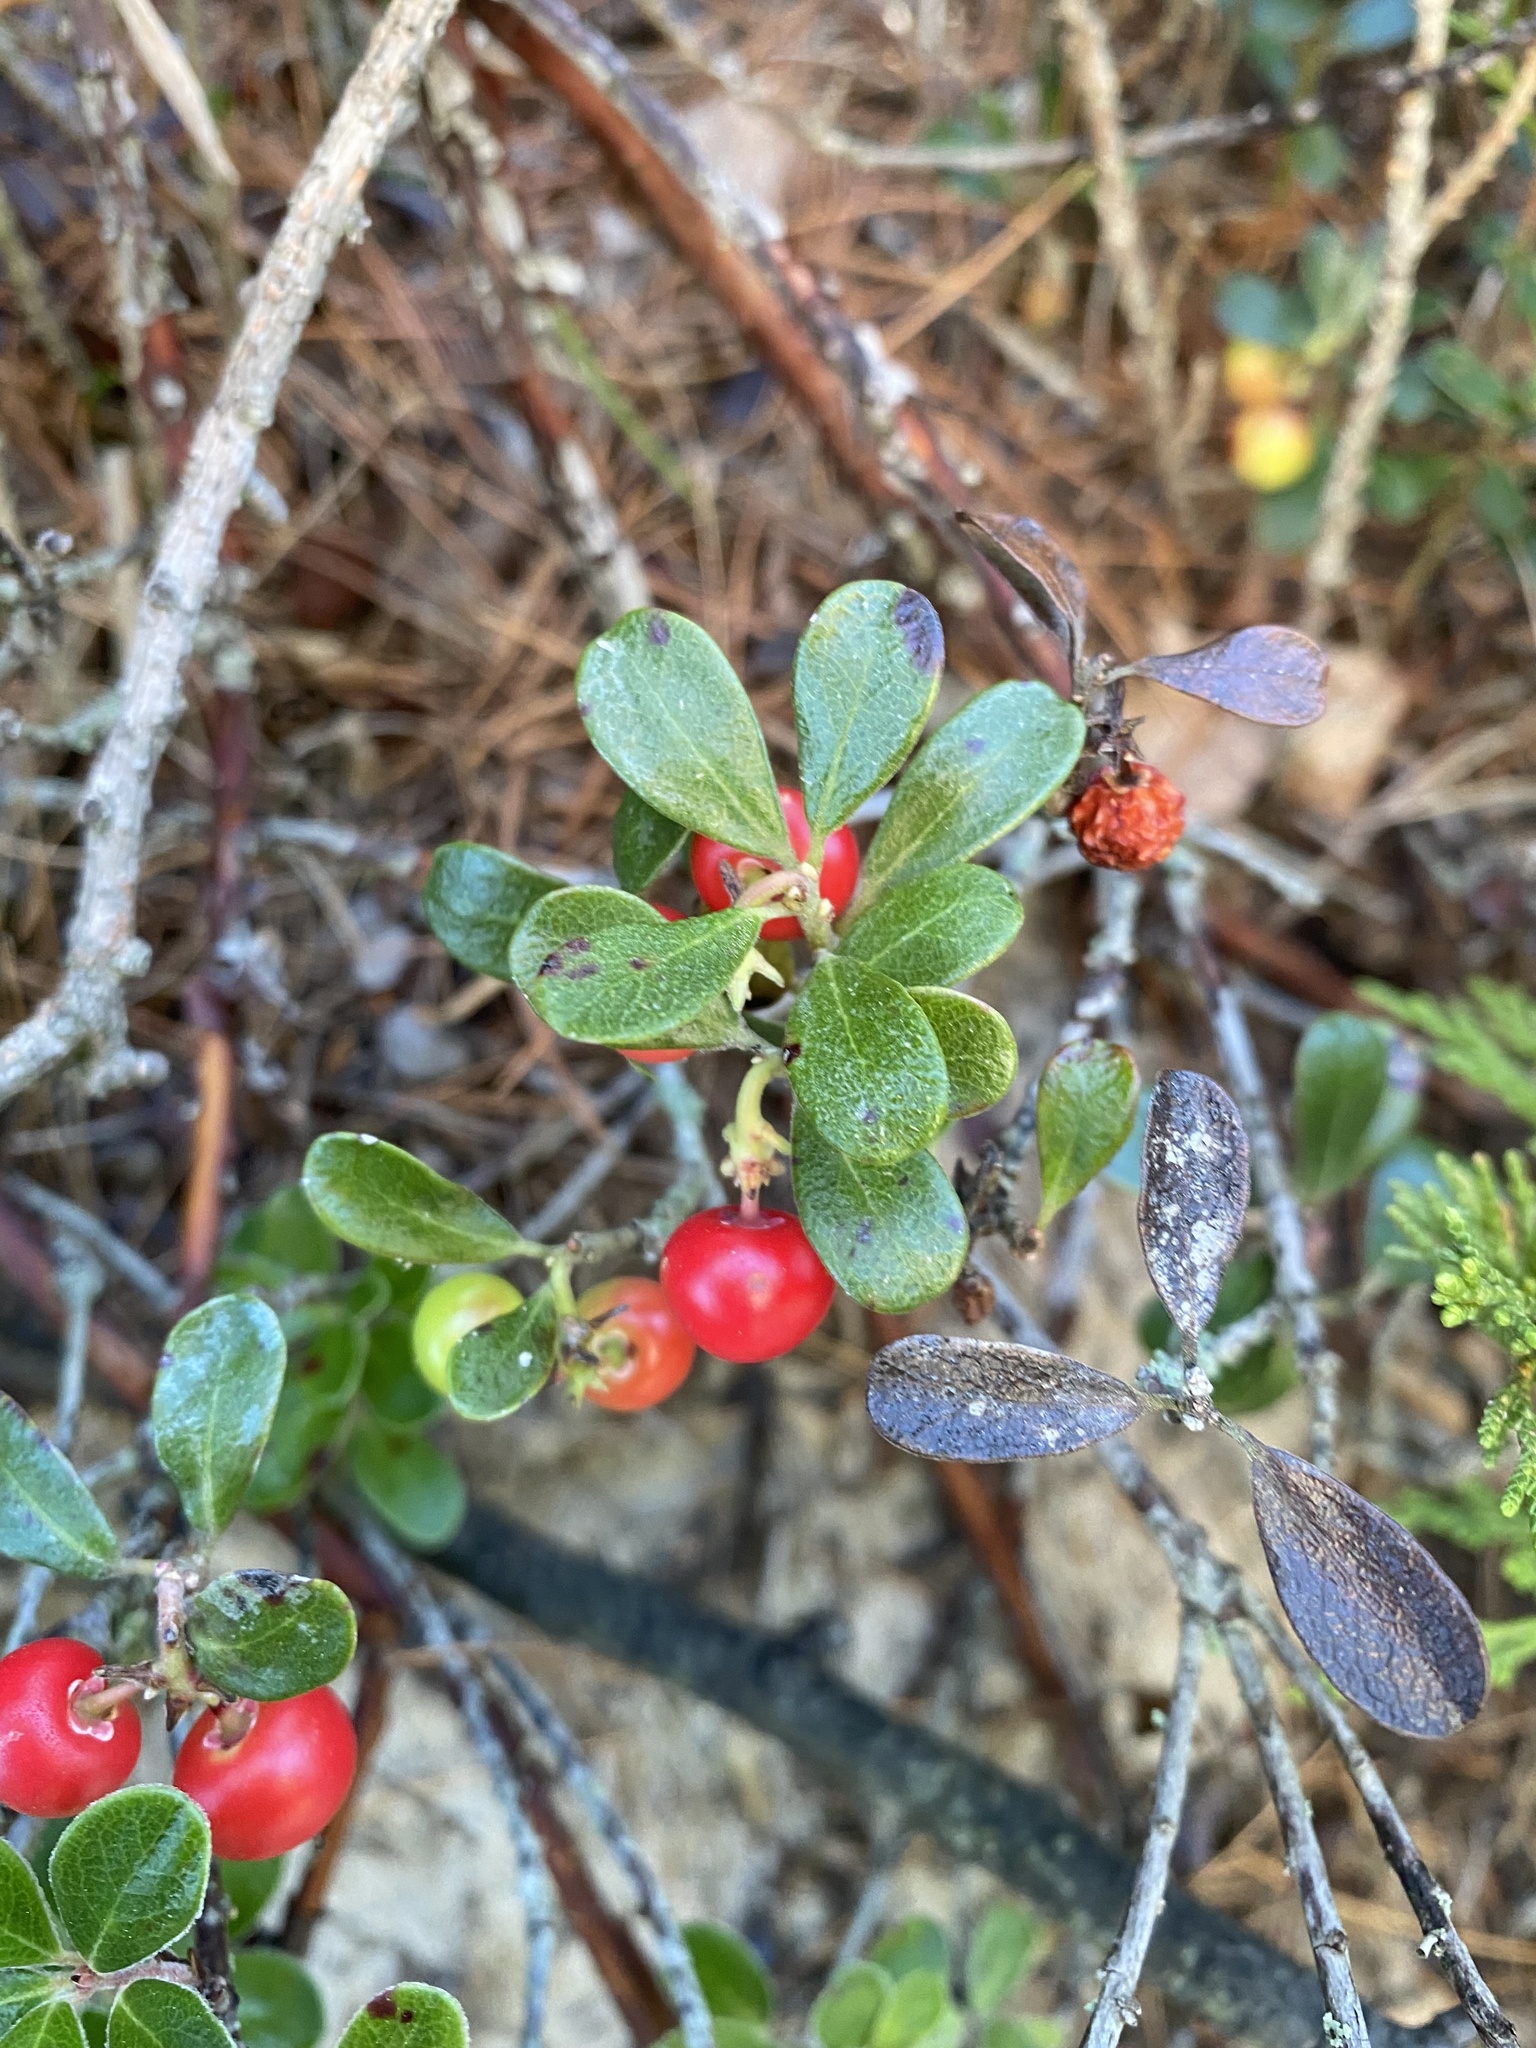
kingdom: Plantae
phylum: Tracheophyta
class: Magnoliopsida
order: Ericales
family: Ericaceae
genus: Arctostaphylos
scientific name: Arctostaphylos uva-ursi
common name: Bearberry
